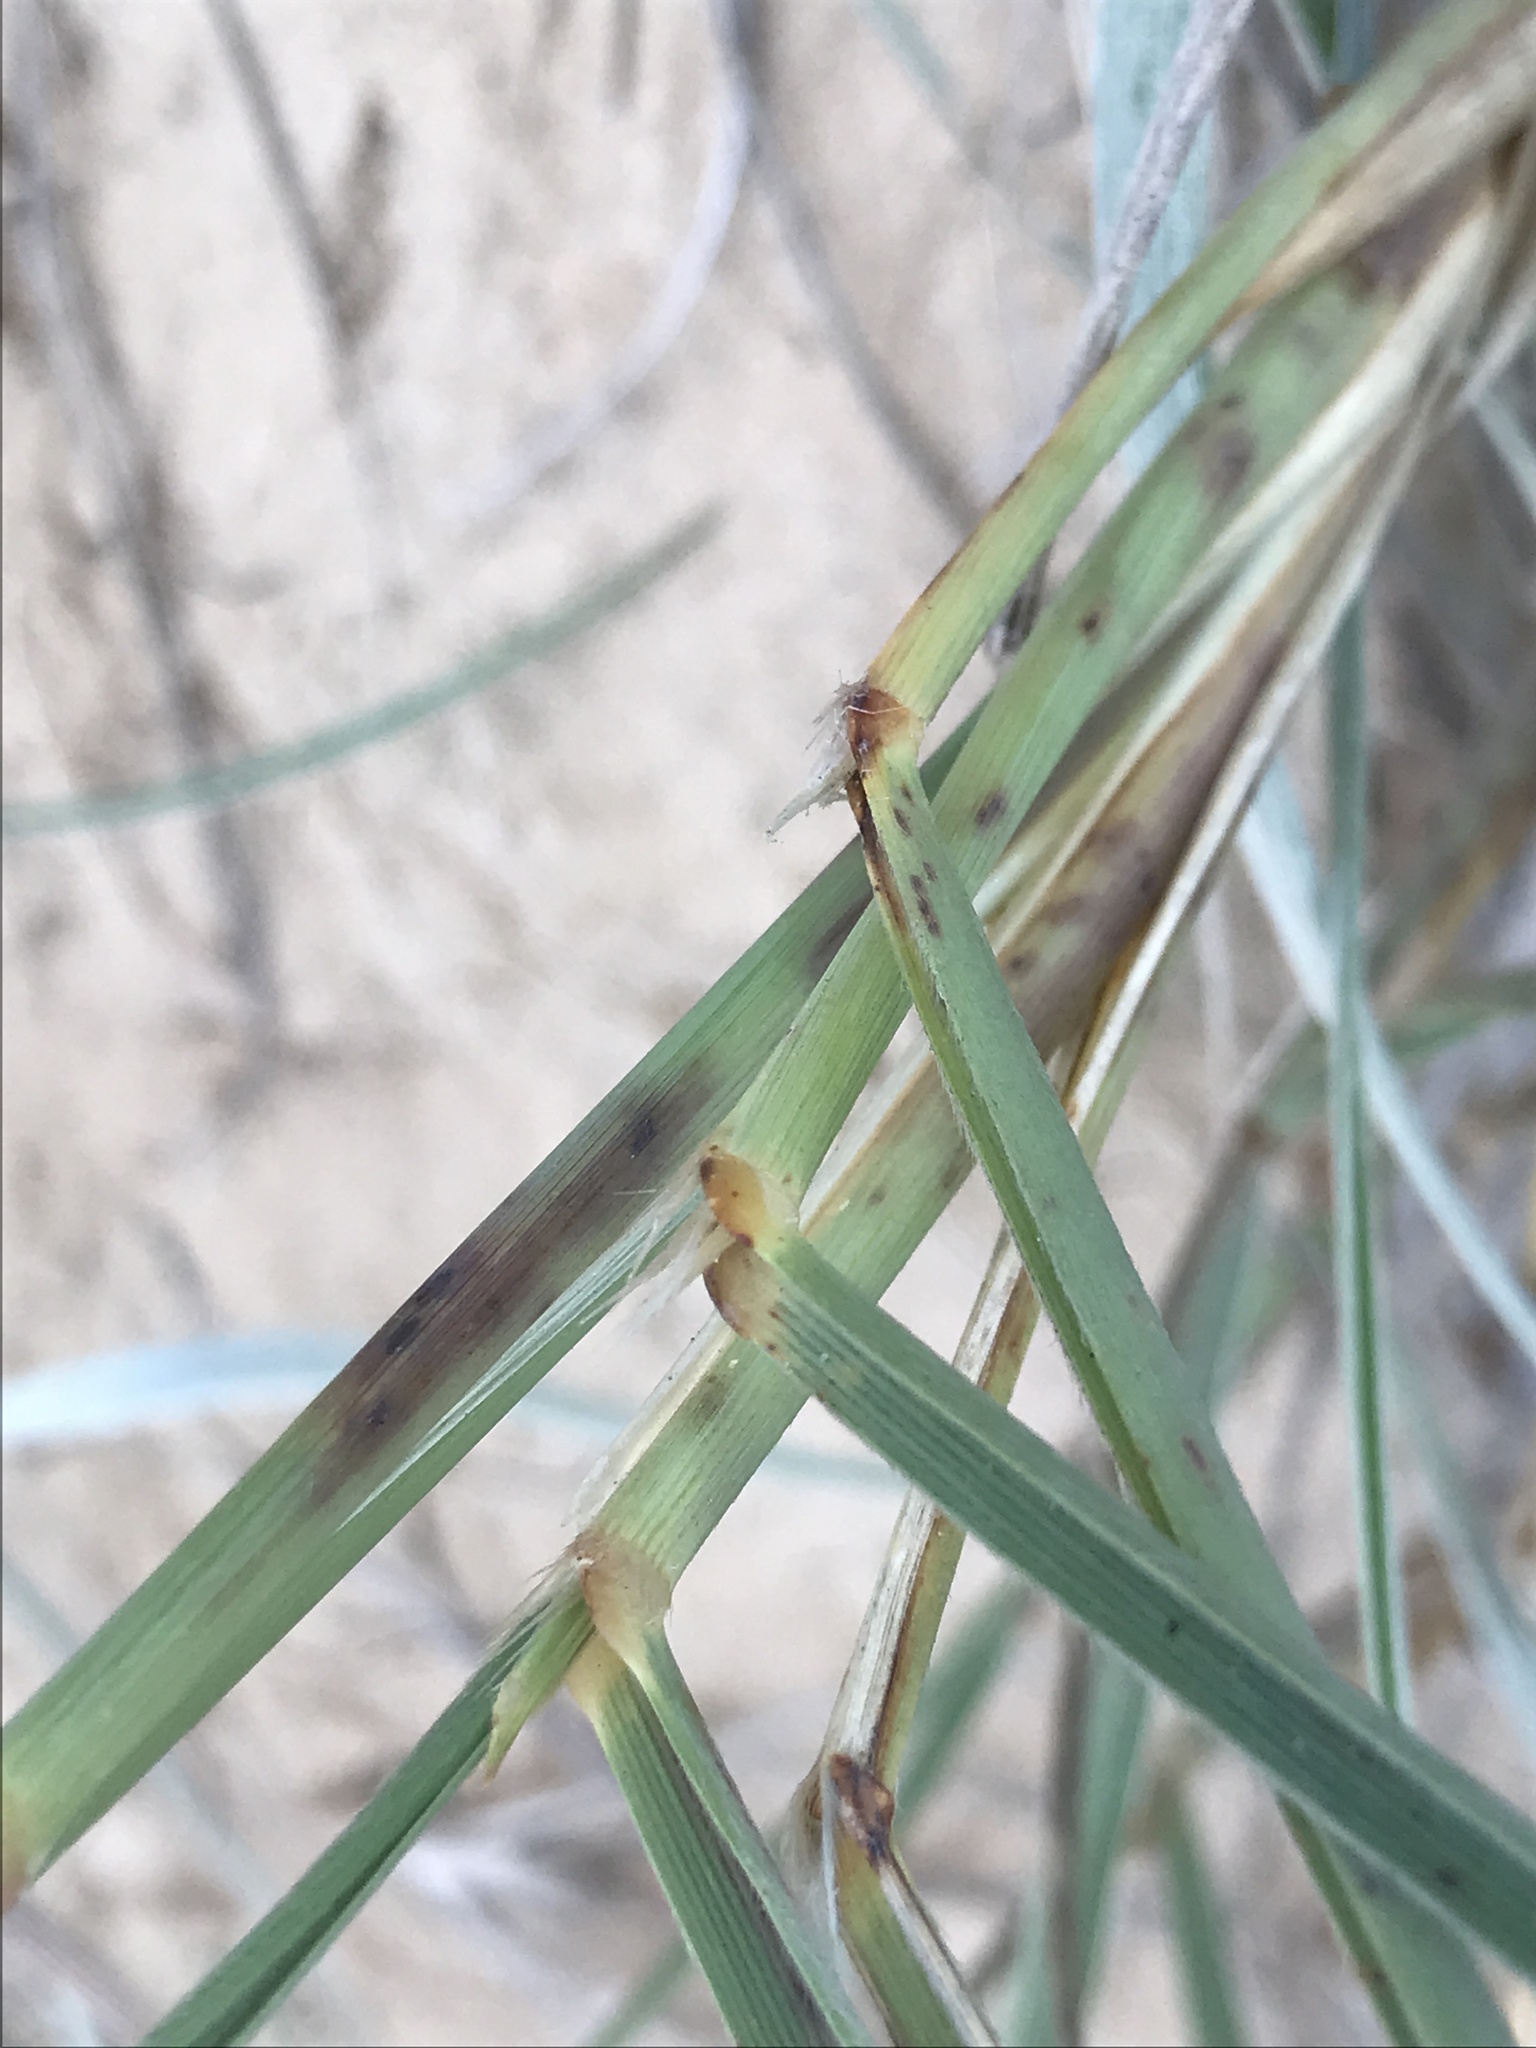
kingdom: Plantae
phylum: Tracheophyta
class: Liliopsida
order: Poales
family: Poaceae
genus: Spinifex
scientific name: Spinifex sericeus
